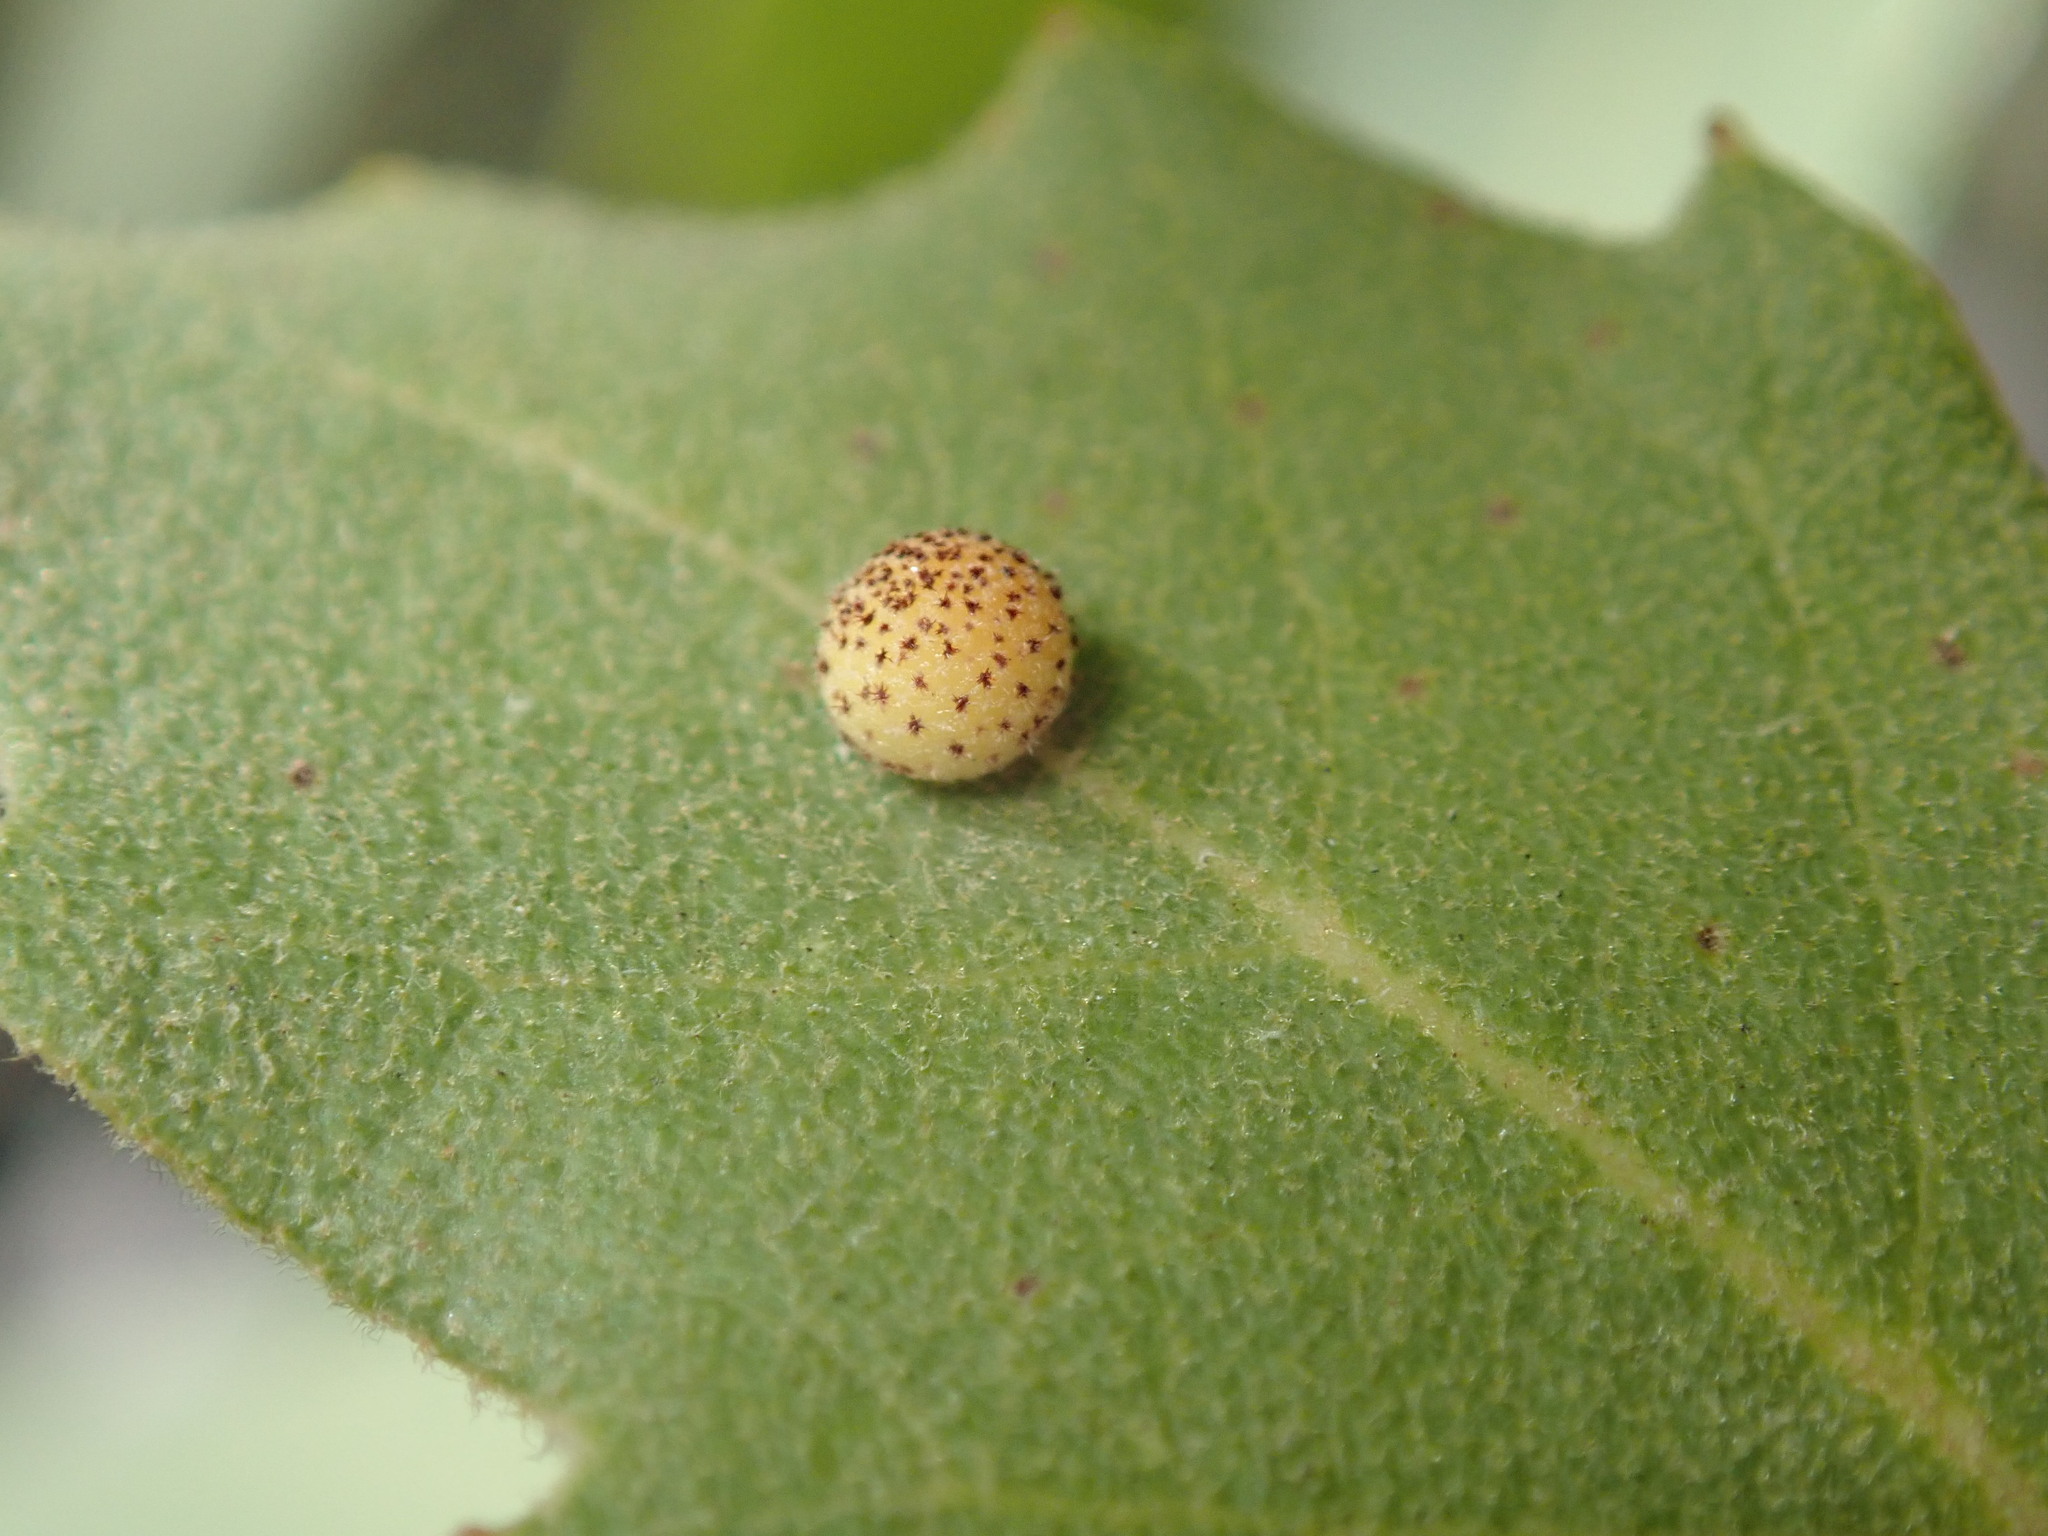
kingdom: Animalia
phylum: Arthropoda
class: Insecta
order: Hymenoptera
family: Cynipidae
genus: Cynips
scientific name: Cynips Antron tomkursari
